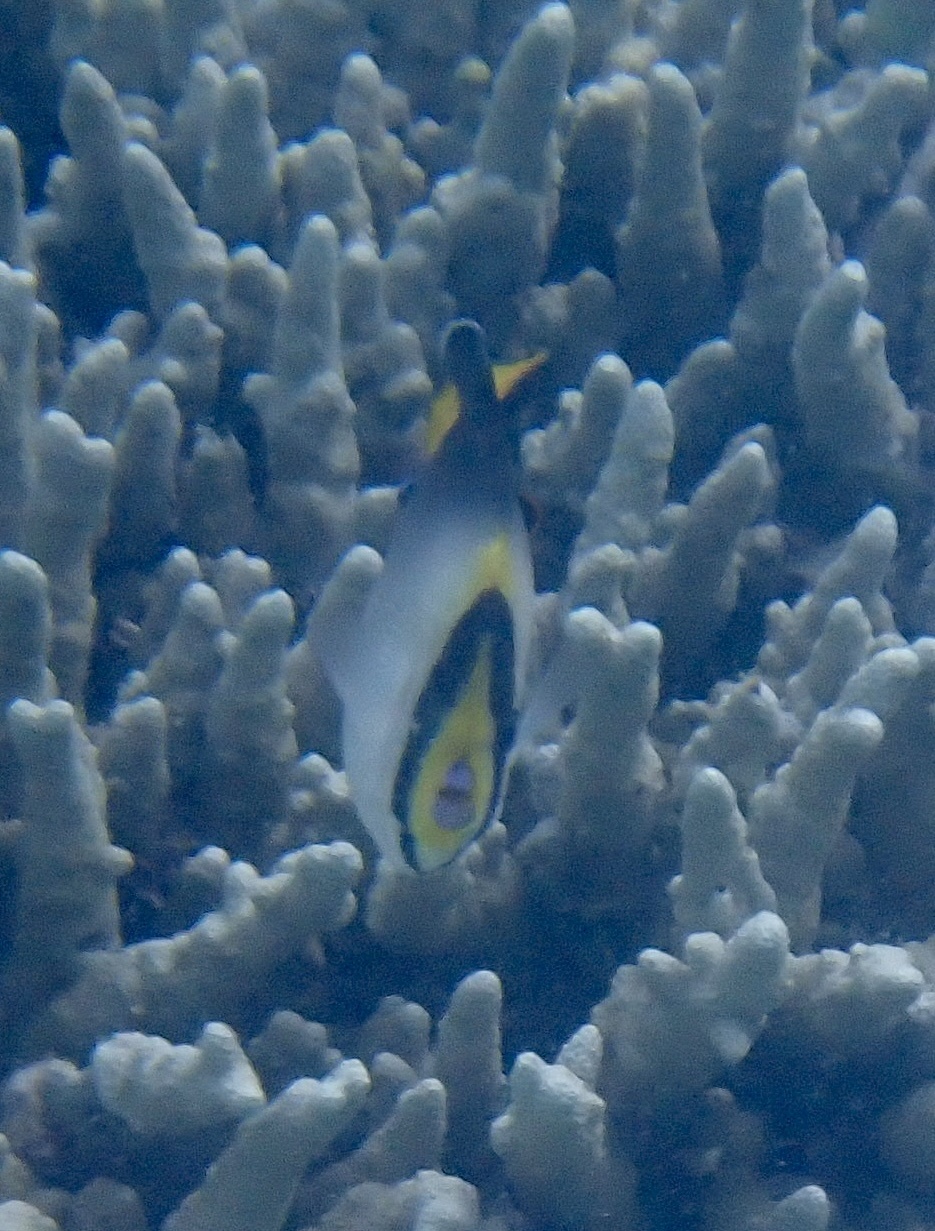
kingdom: Animalia
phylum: Chordata
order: Perciformes
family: Pomacanthidae
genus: Chaetodontoplus
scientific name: Chaetodontoplus mesoleucus
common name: Vermiculated angelfish
